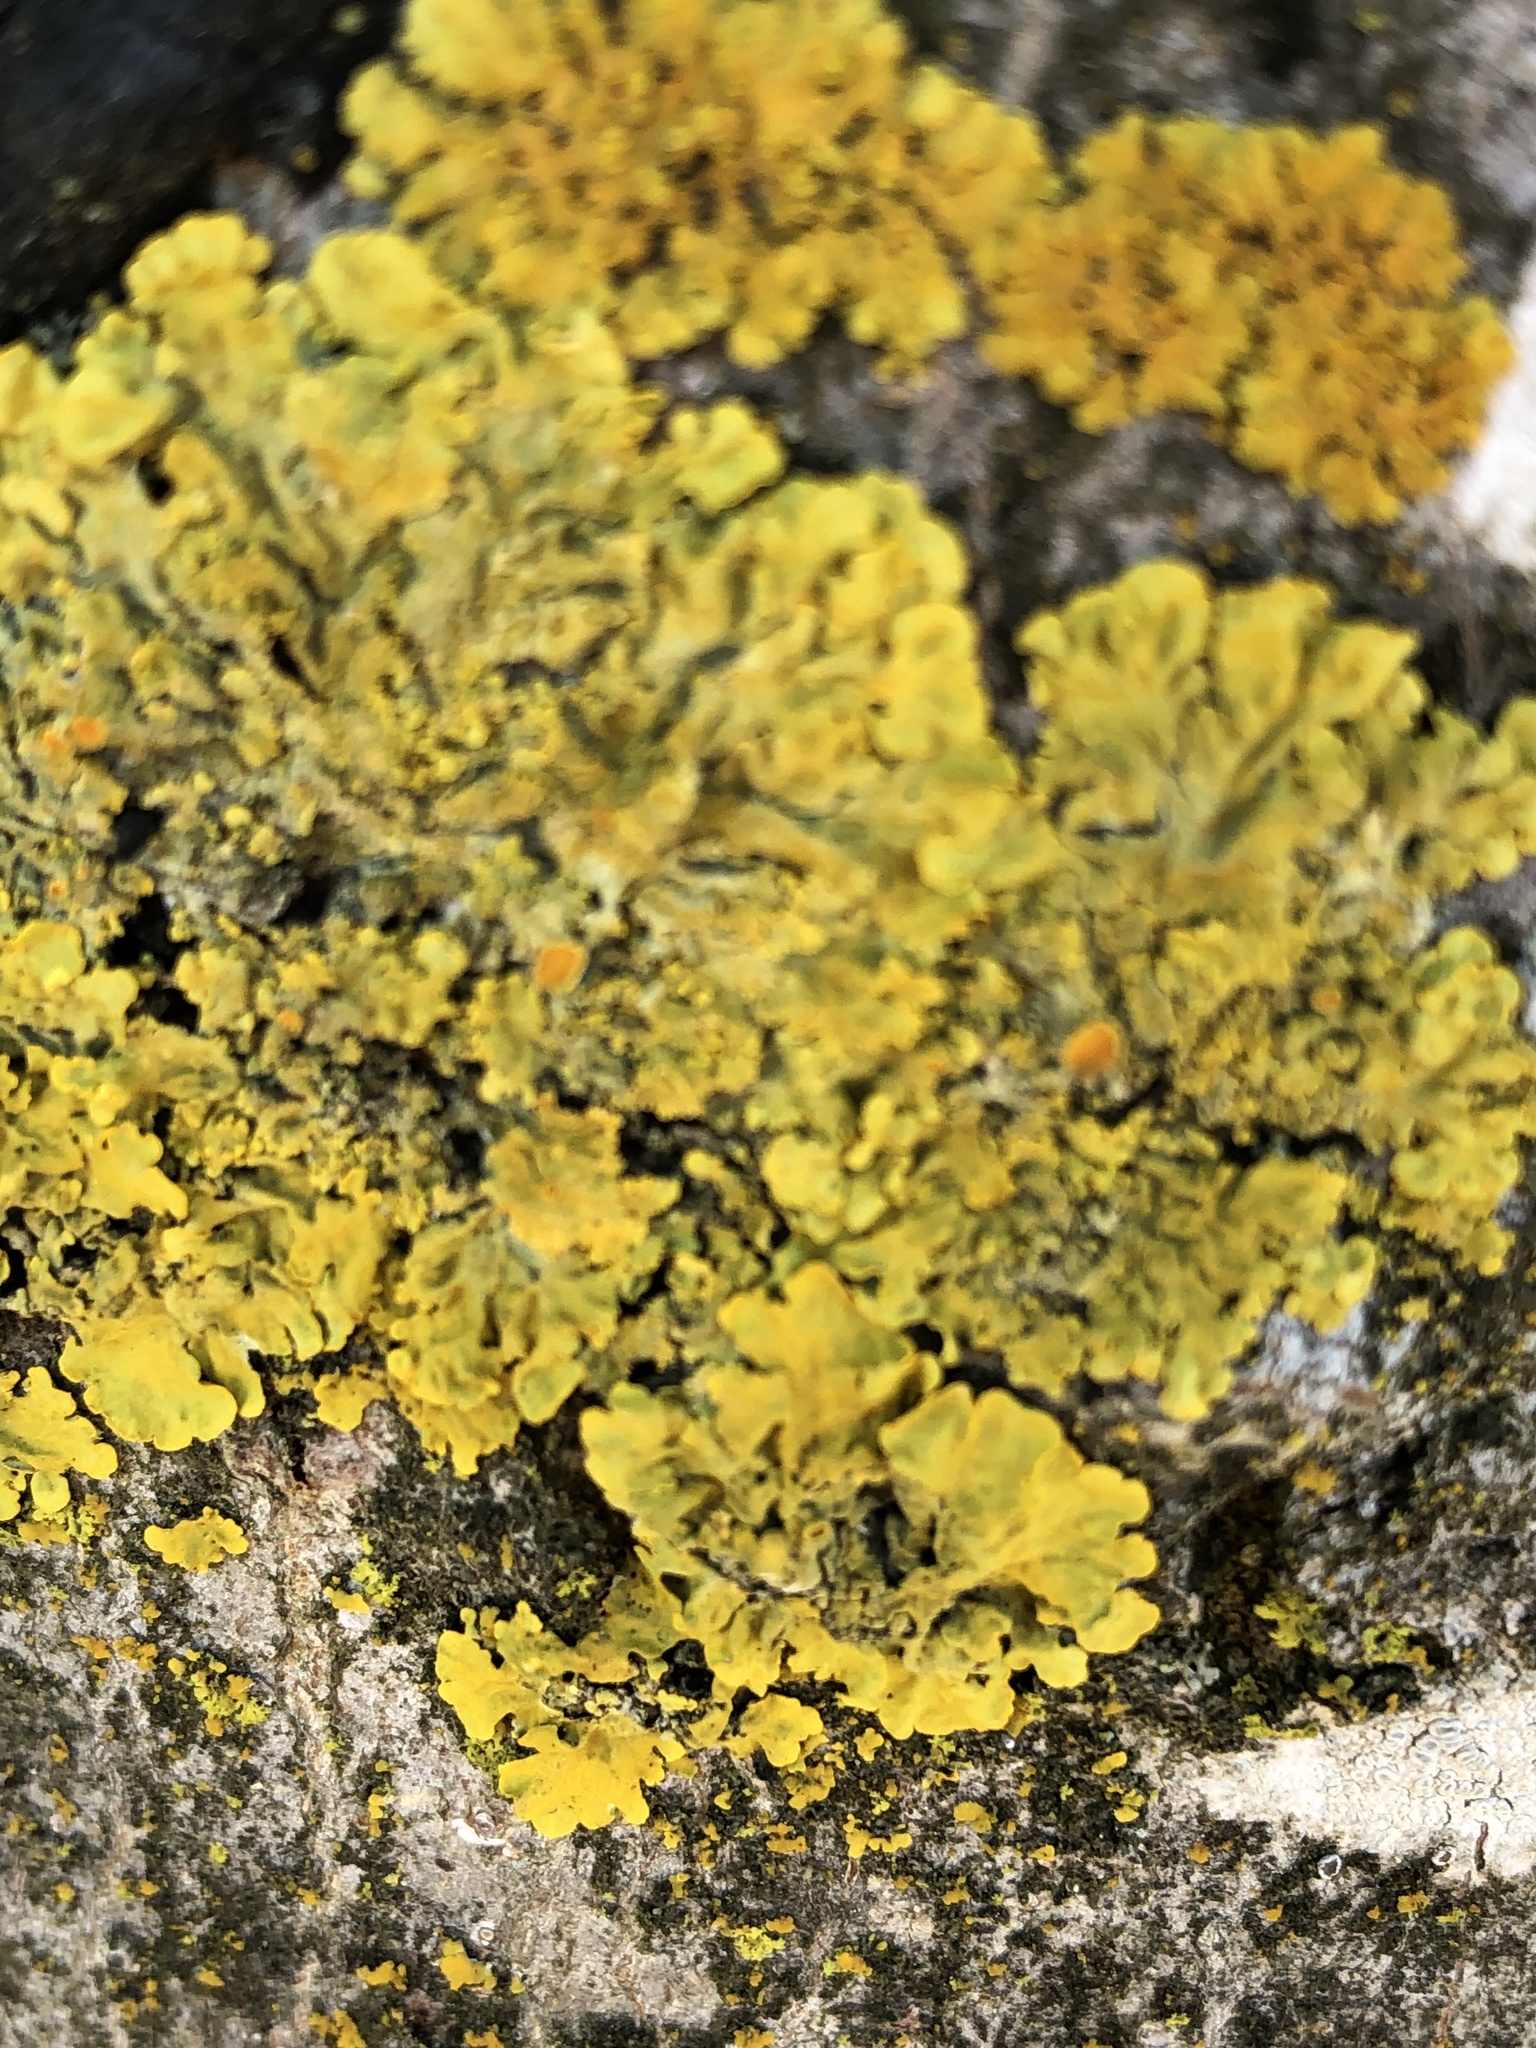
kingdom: Fungi
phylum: Ascomycota
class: Lecanoromycetes
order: Teloschistales
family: Teloschistaceae
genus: Xanthoria
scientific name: Xanthoria parietina
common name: Common orange lichen
